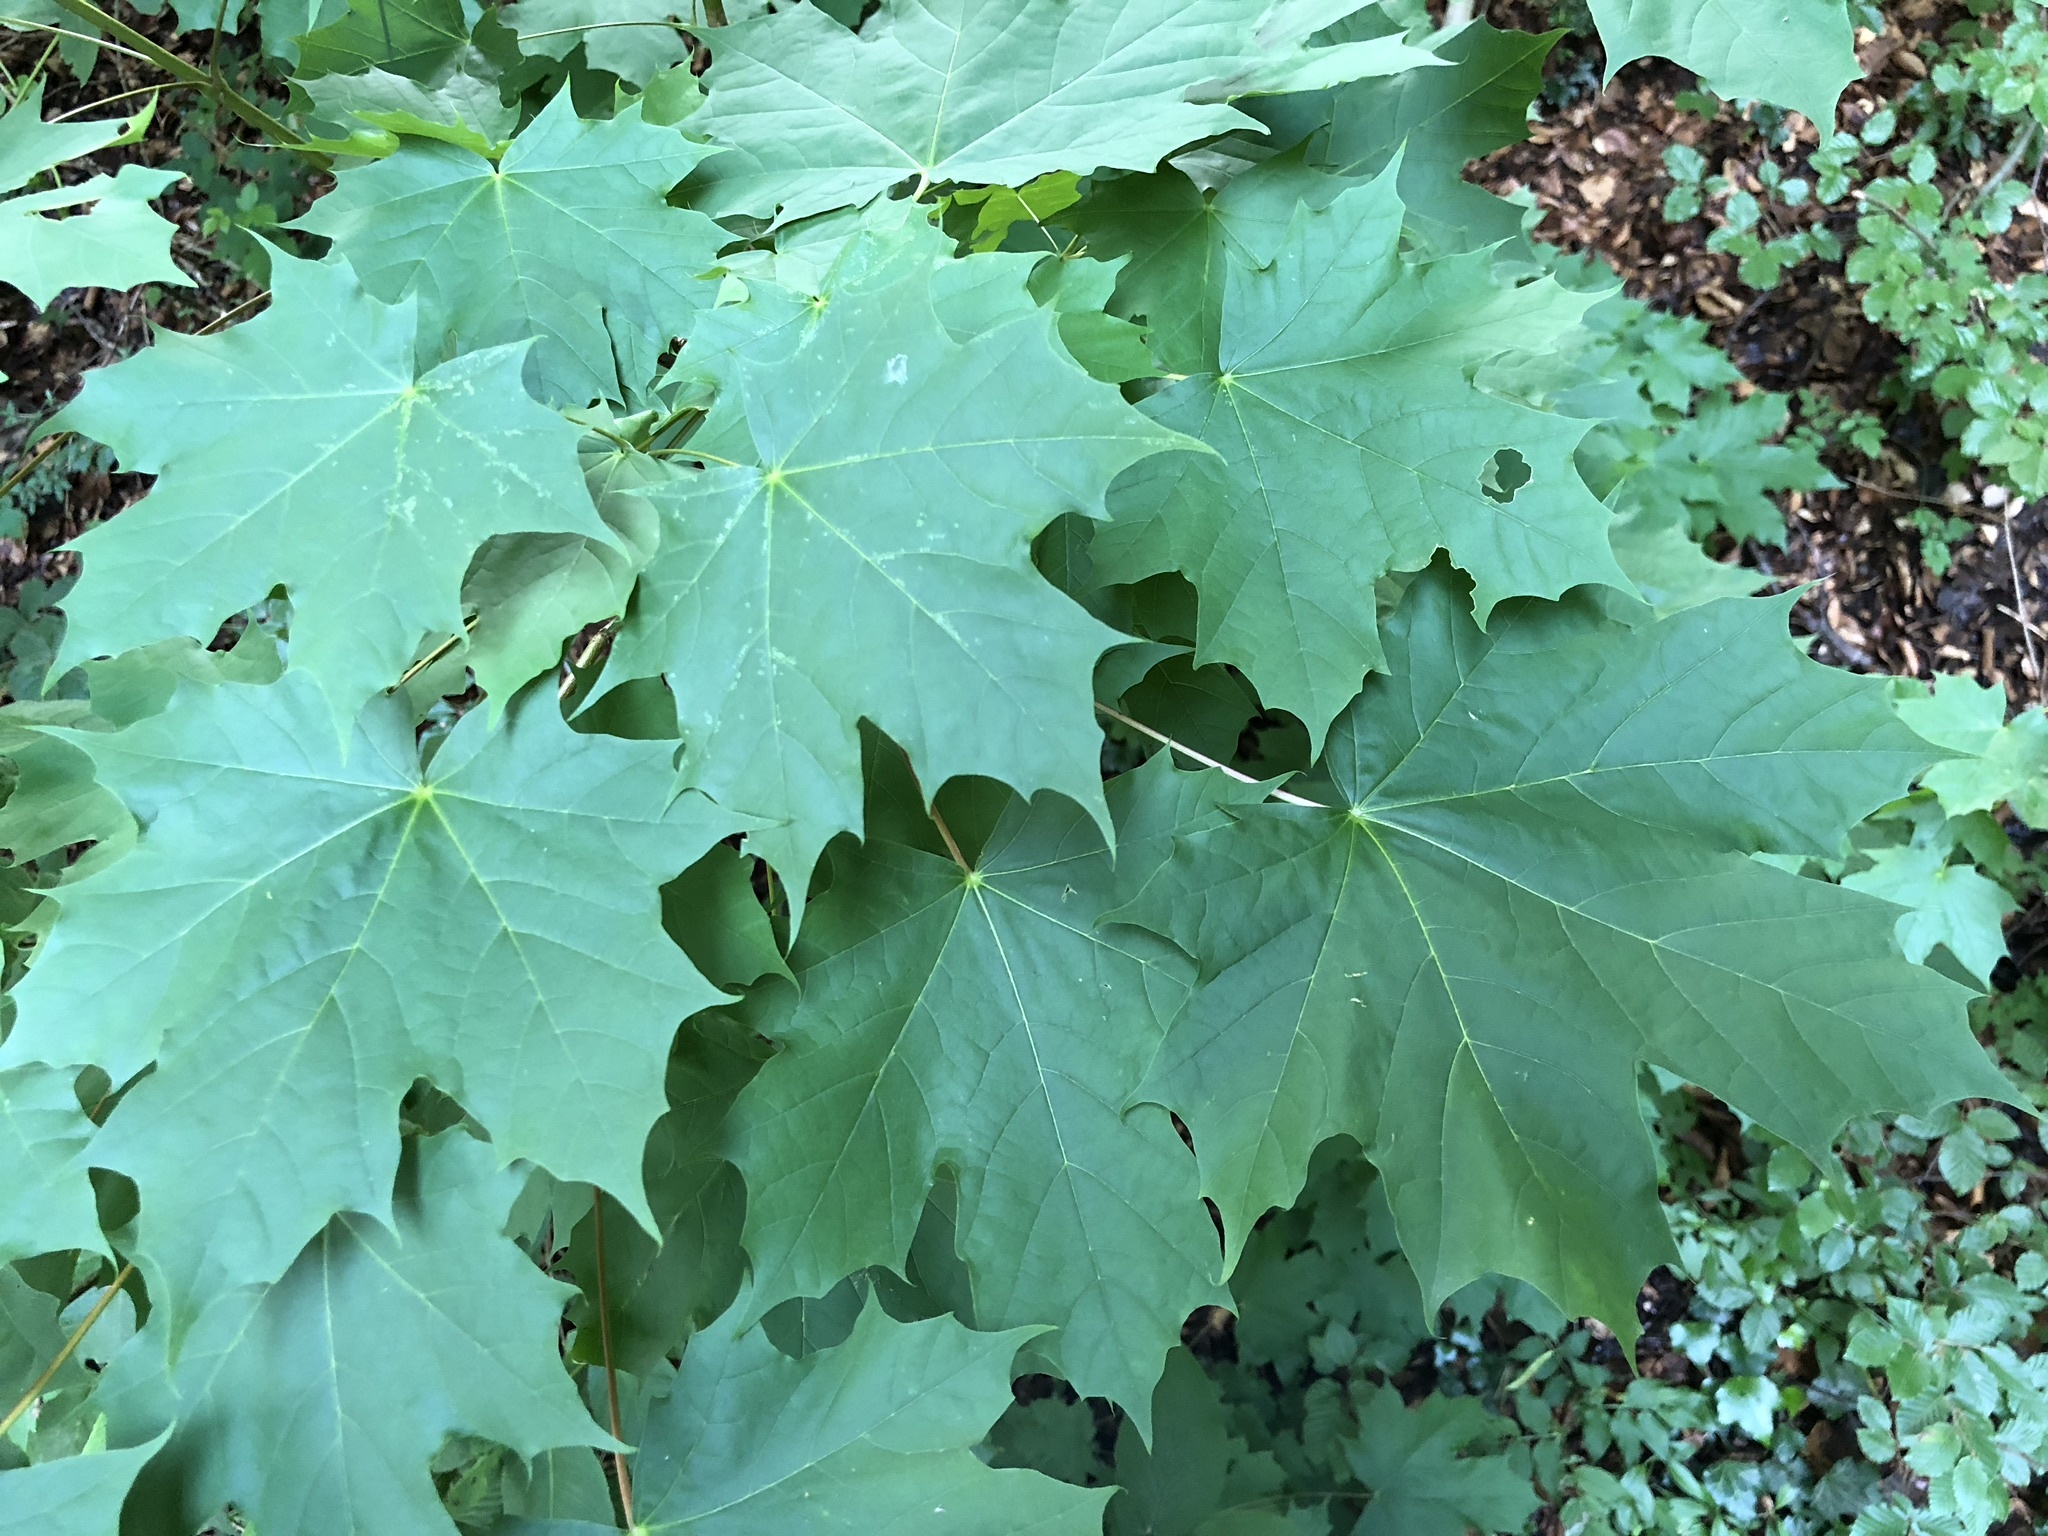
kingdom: Plantae
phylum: Tracheophyta
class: Magnoliopsida
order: Sapindales
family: Sapindaceae
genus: Acer
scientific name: Acer platanoides
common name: Norway maple
